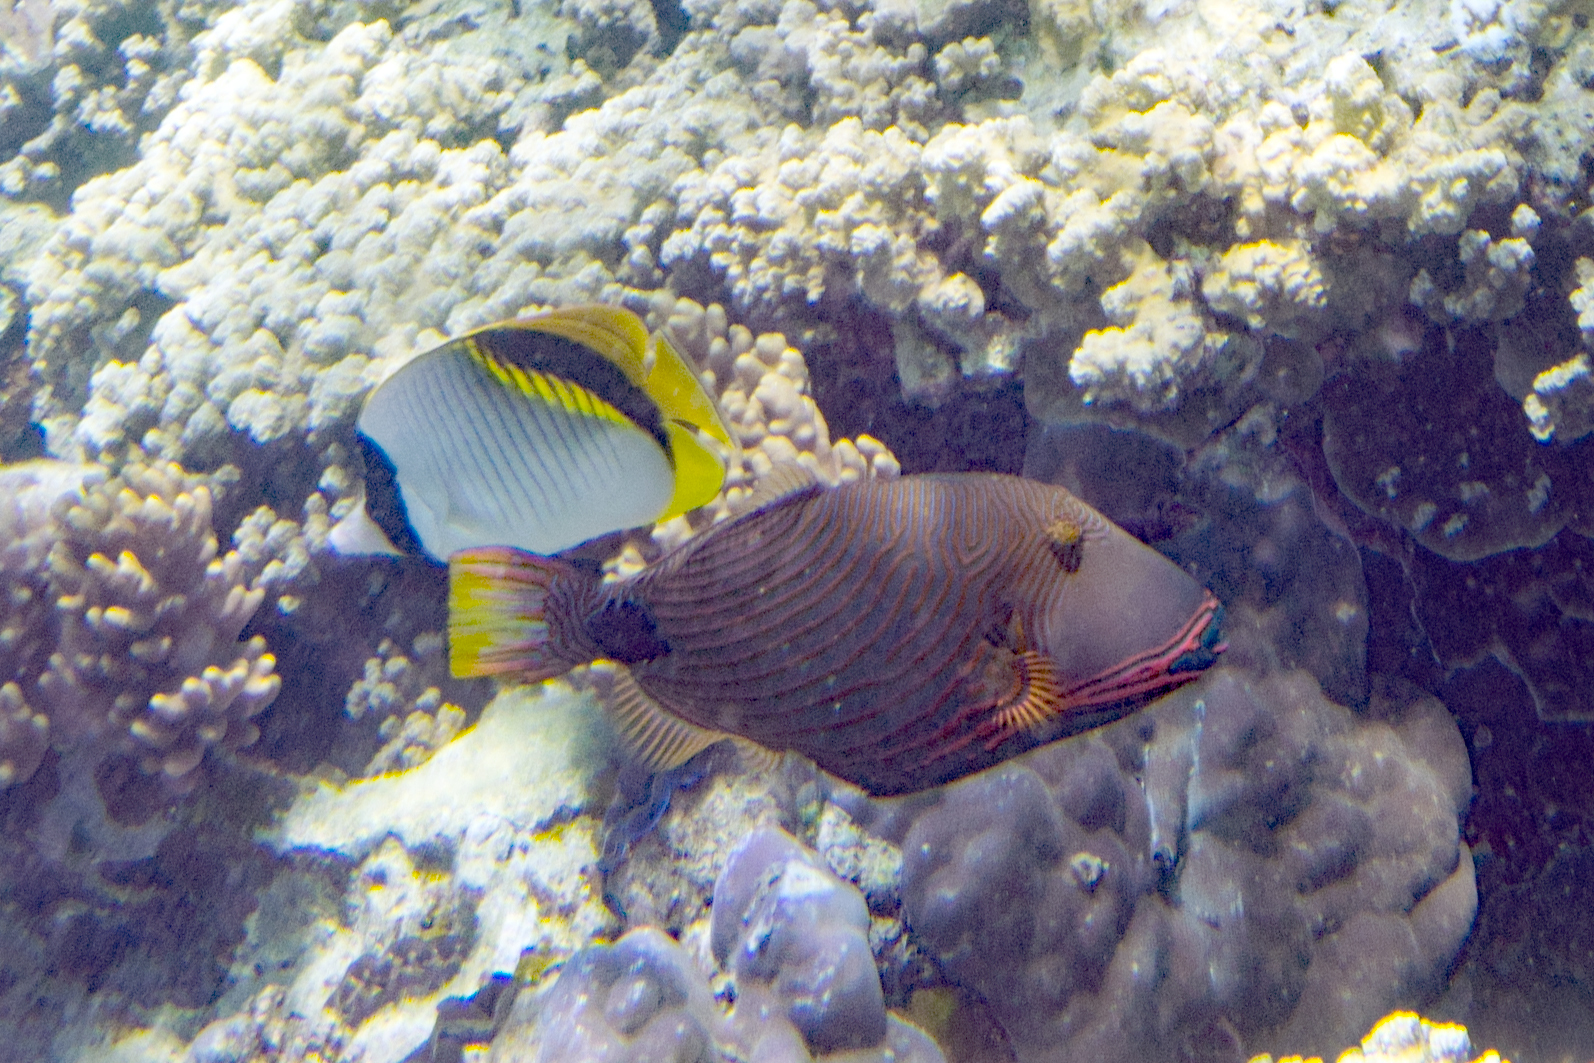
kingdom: Animalia
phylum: Chordata
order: Tetraodontiformes
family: Balistidae
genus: Balistapus
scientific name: Balistapus undulatus
